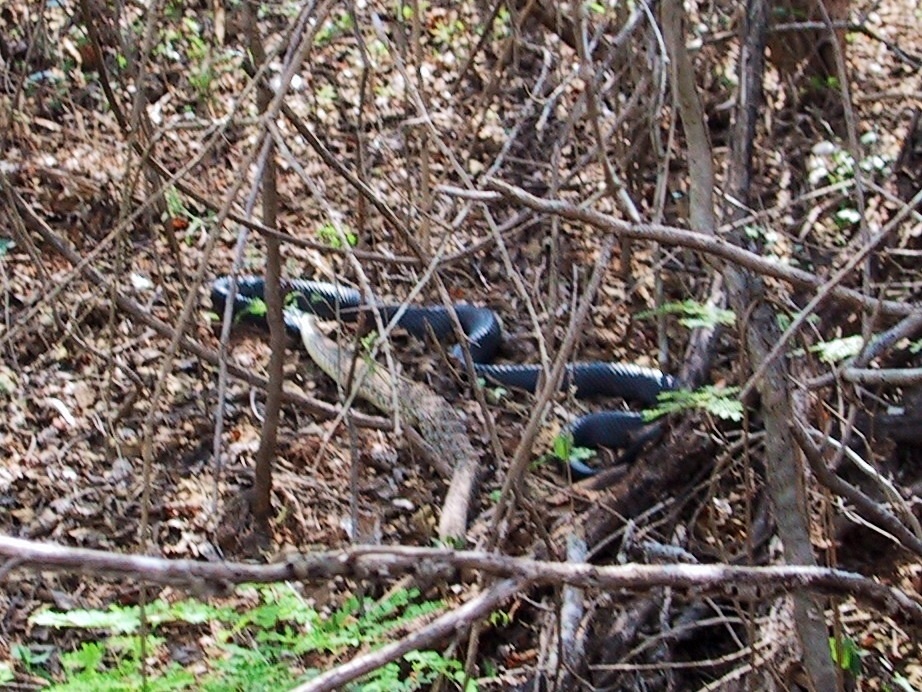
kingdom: Animalia
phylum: Chordata
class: Squamata
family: Colubridae
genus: Drymarchon
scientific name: Drymarchon melanurus
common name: Central american indigo snake
